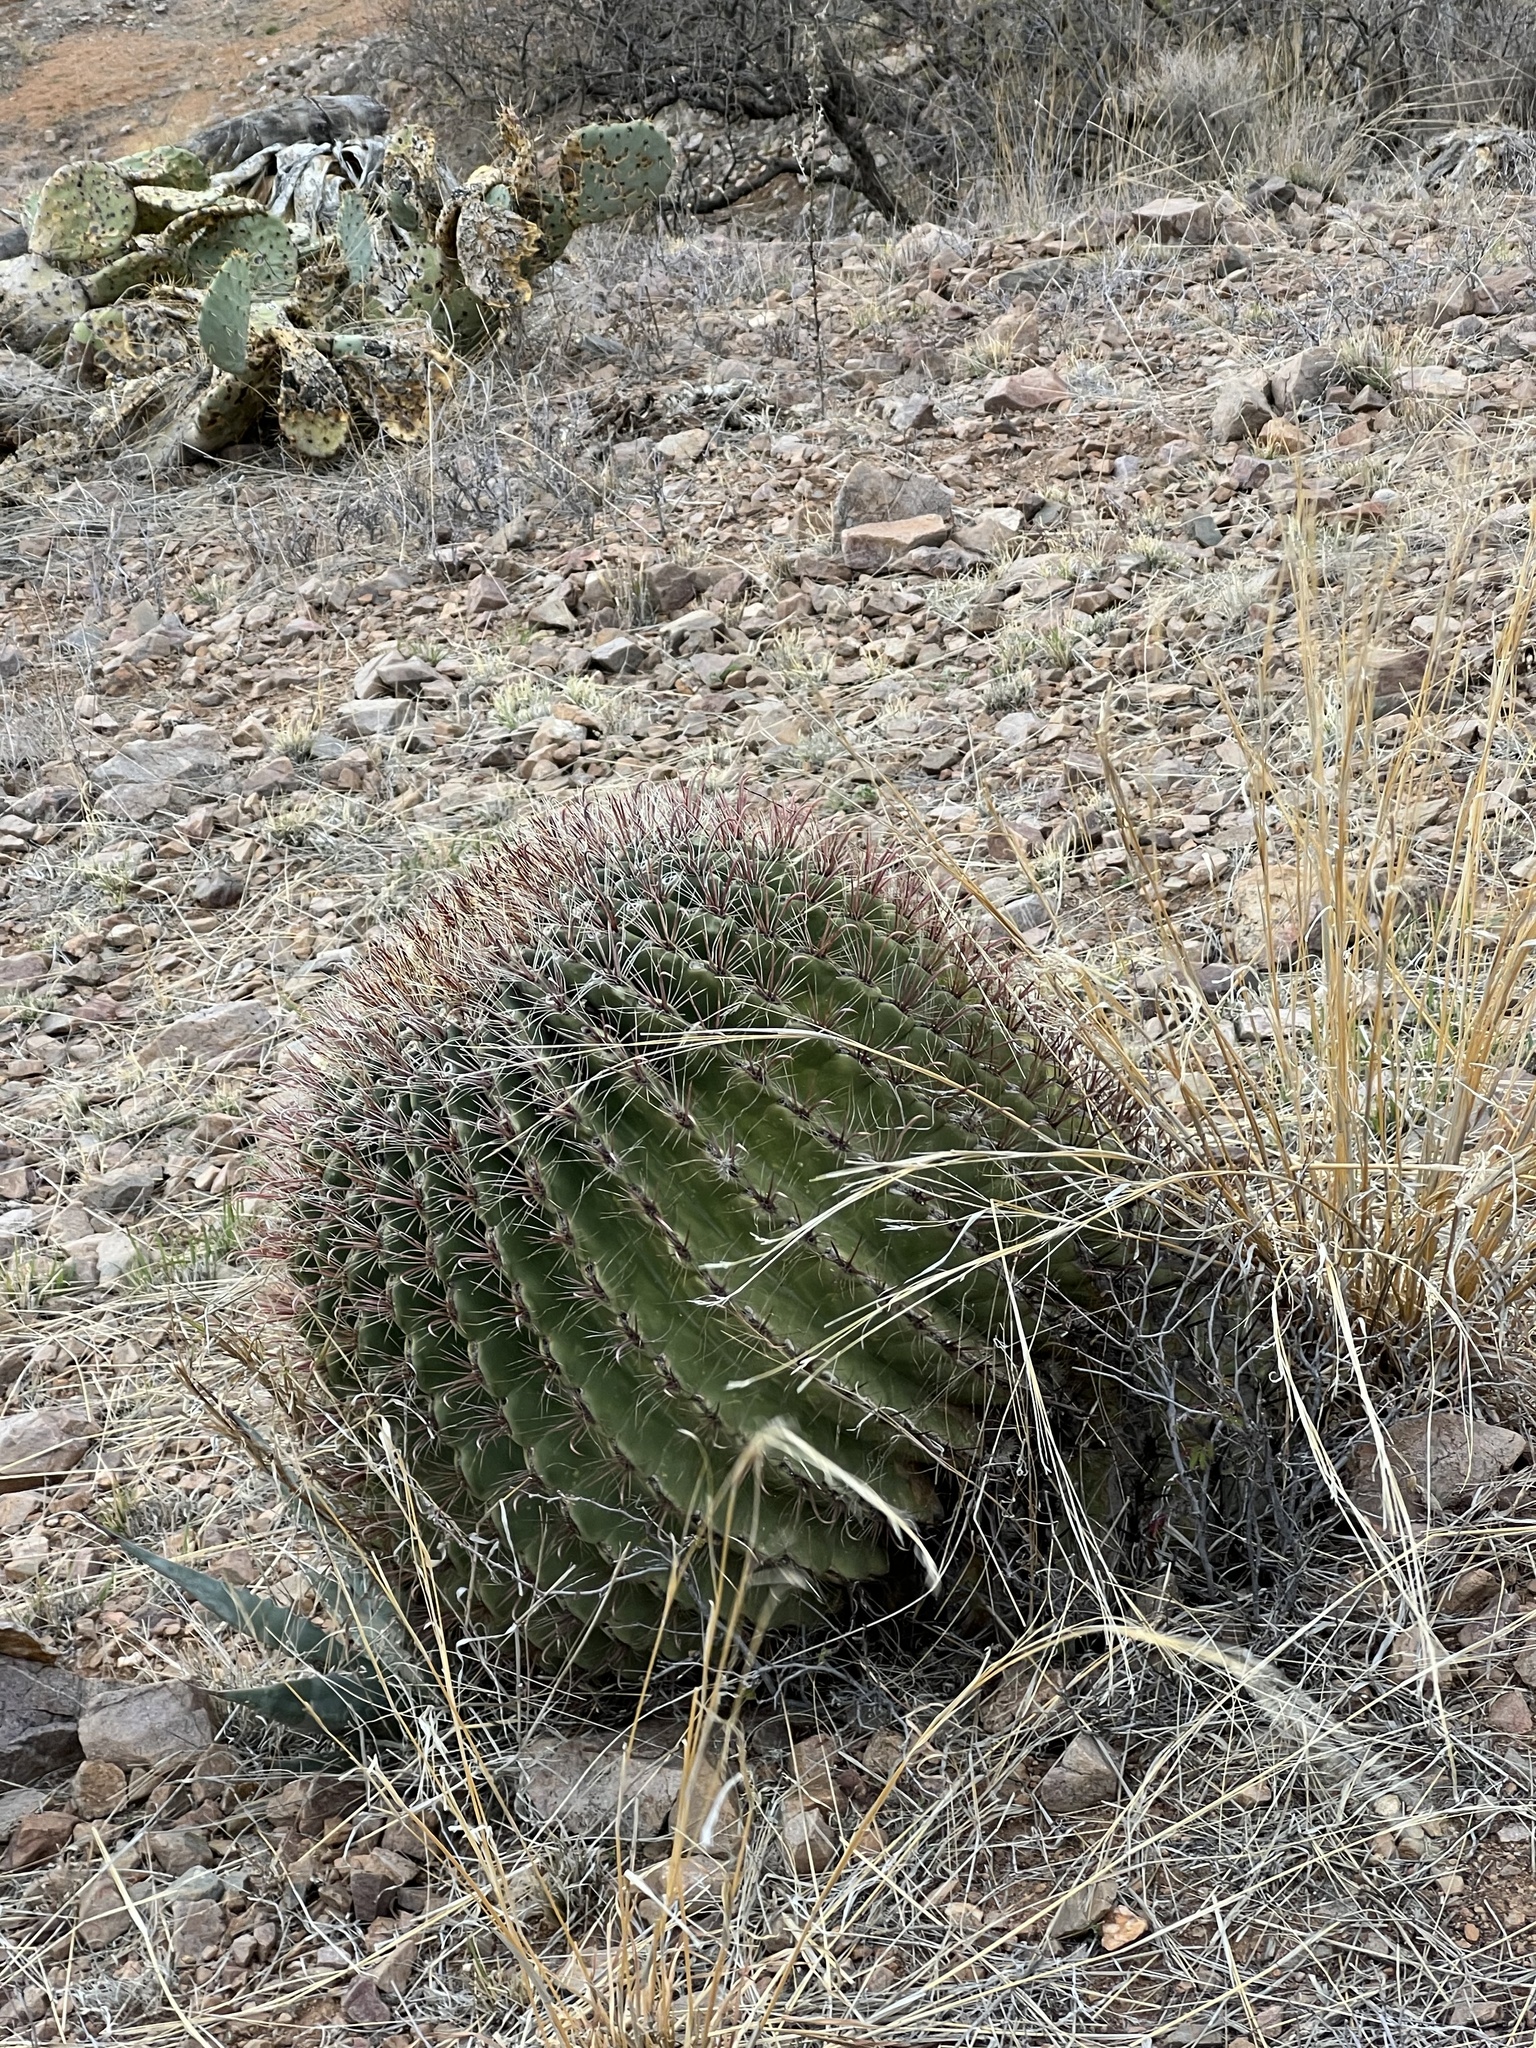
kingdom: Plantae
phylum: Tracheophyta
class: Magnoliopsida
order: Caryophyllales
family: Cactaceae
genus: Ferocactus
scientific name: Ferocactus wislizeni
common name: Candy barrel cactus
